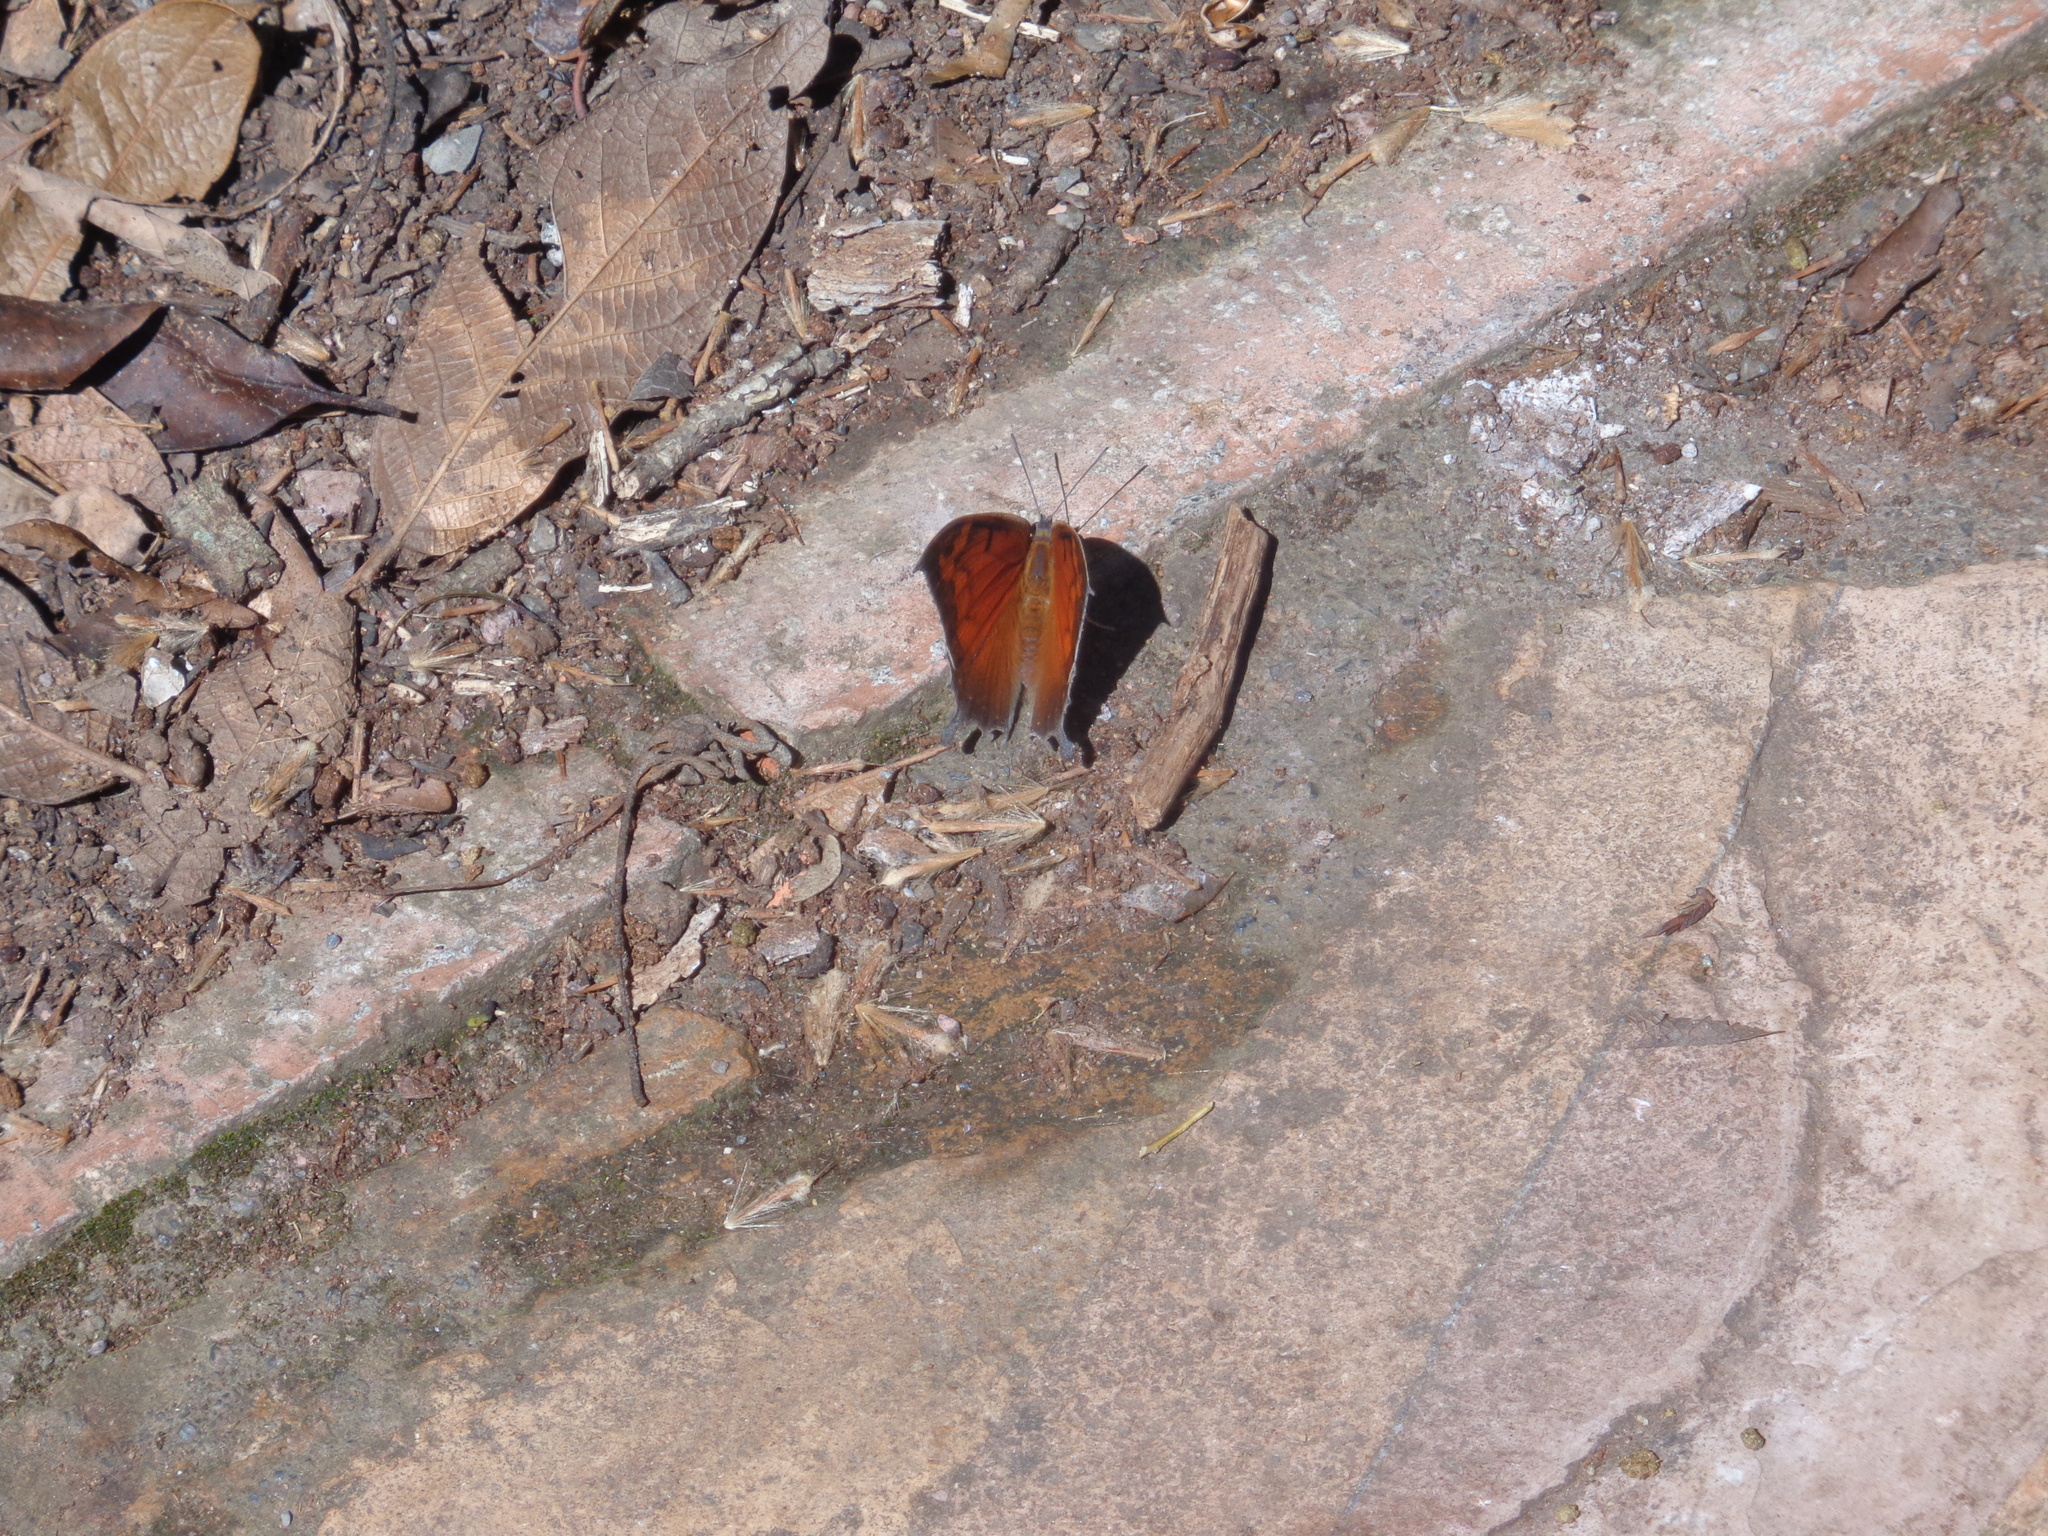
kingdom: Animalia
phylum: Arthropoda
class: Insecta
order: Lepidoptera
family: Nymphalidae
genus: Anaea
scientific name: Anaea aidea
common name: Tropical leafwing
